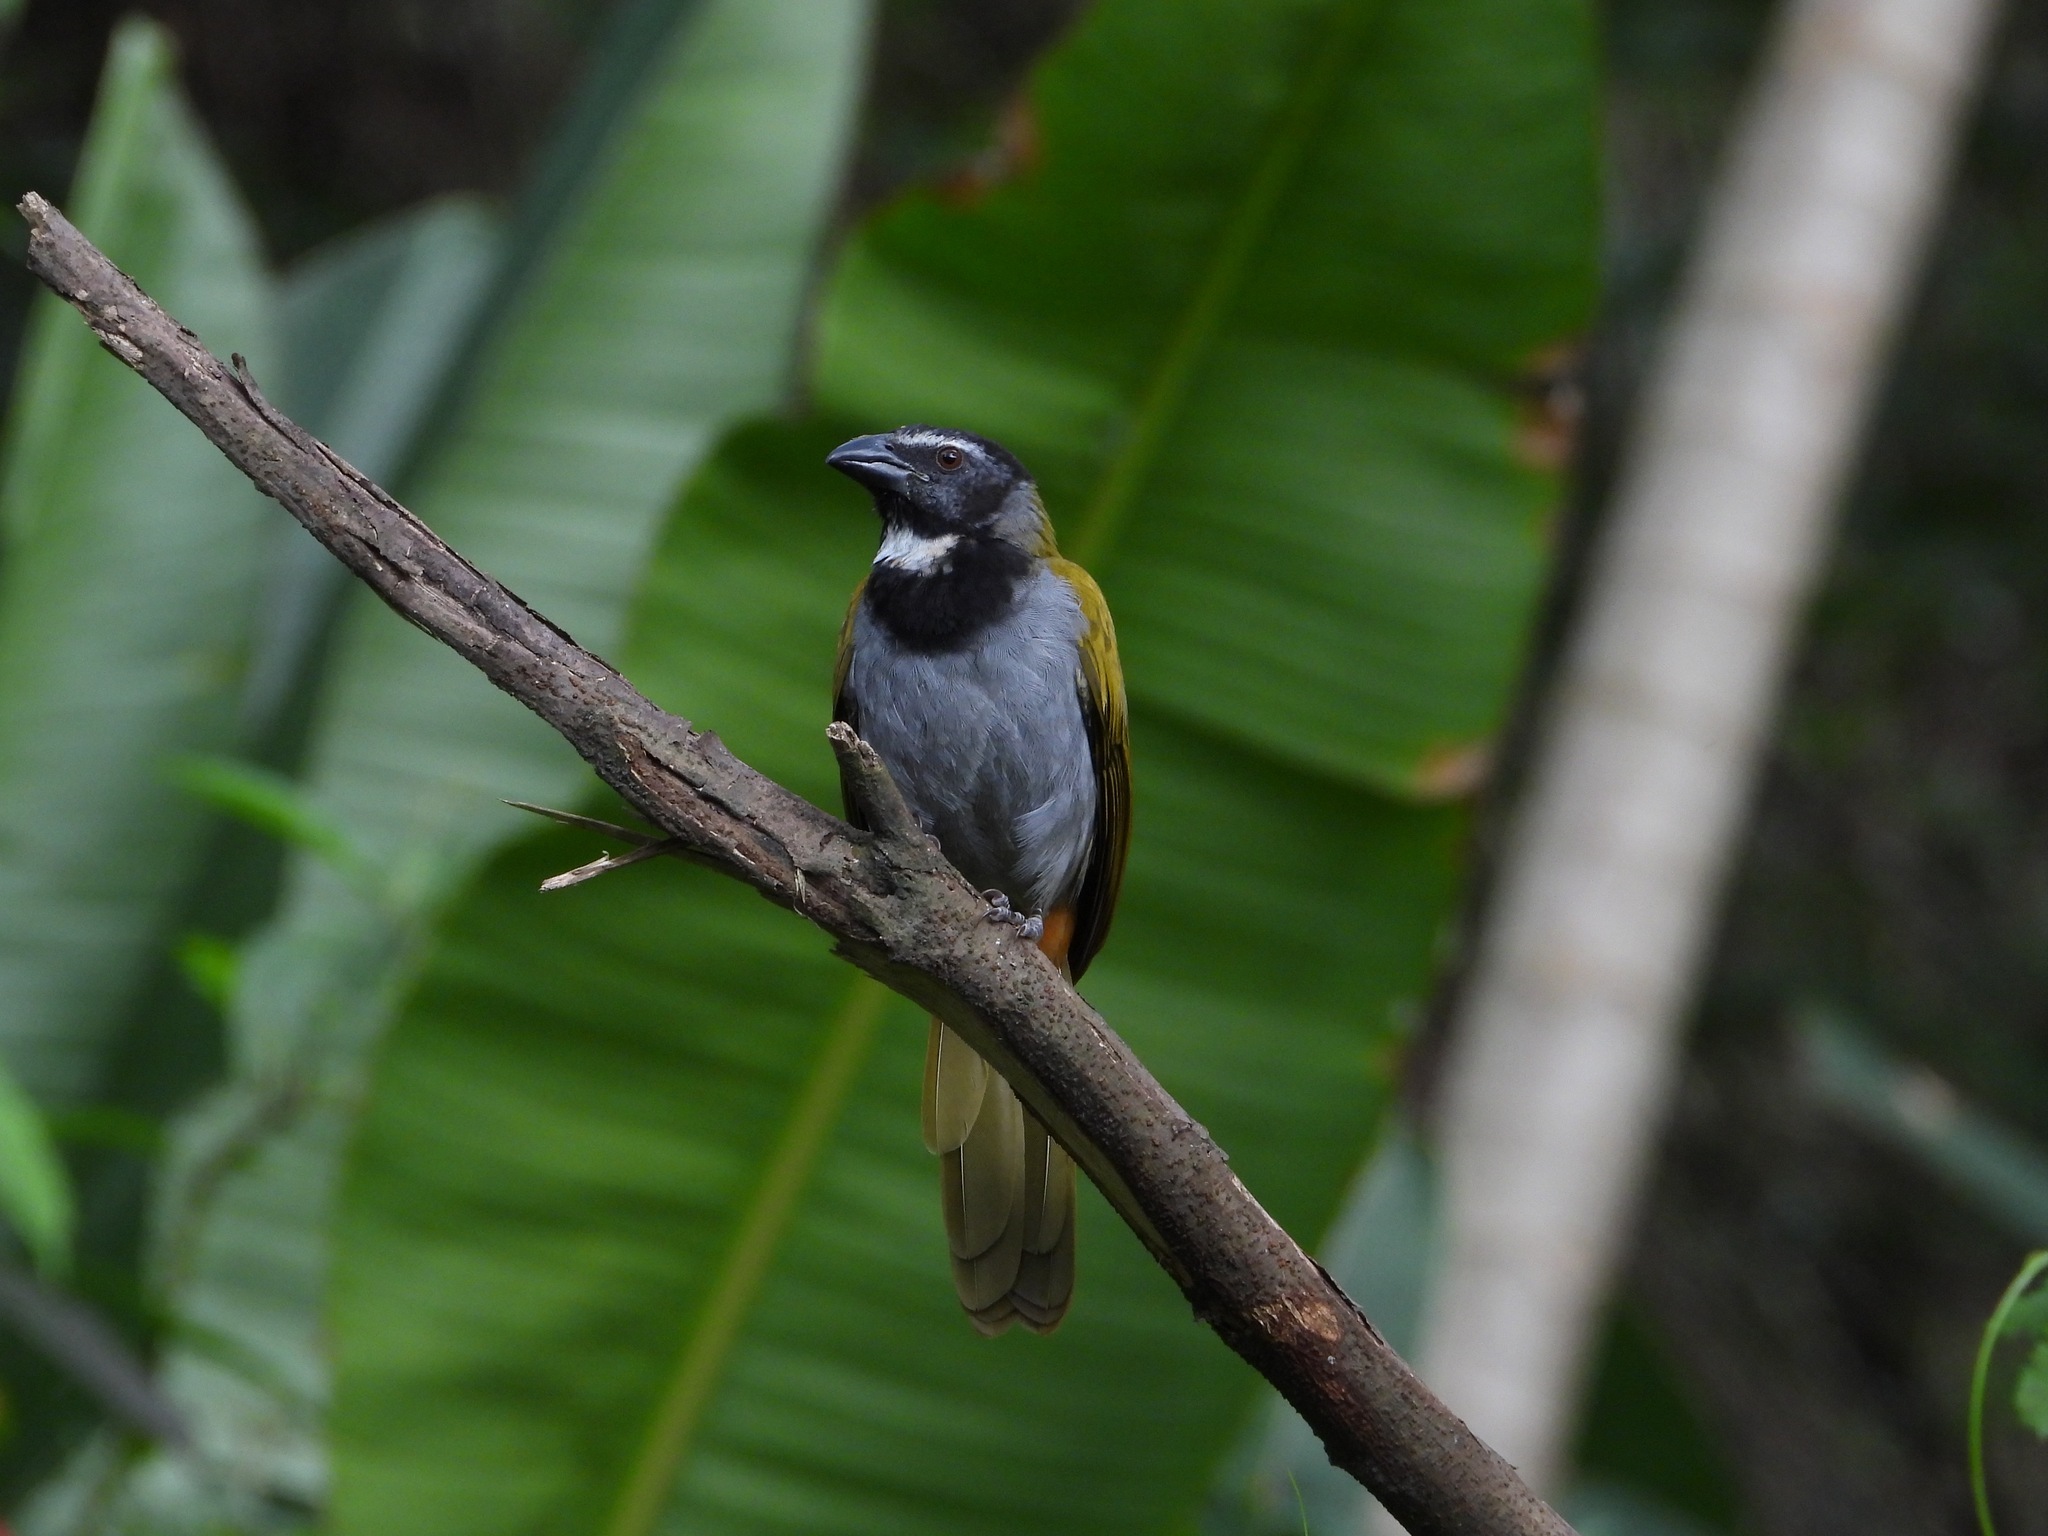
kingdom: Animalia
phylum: Chordata
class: Aves
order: Passeriformes
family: Thraupidae
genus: Saltator
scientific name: Saltator atriceps
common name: Black-headed saltator
